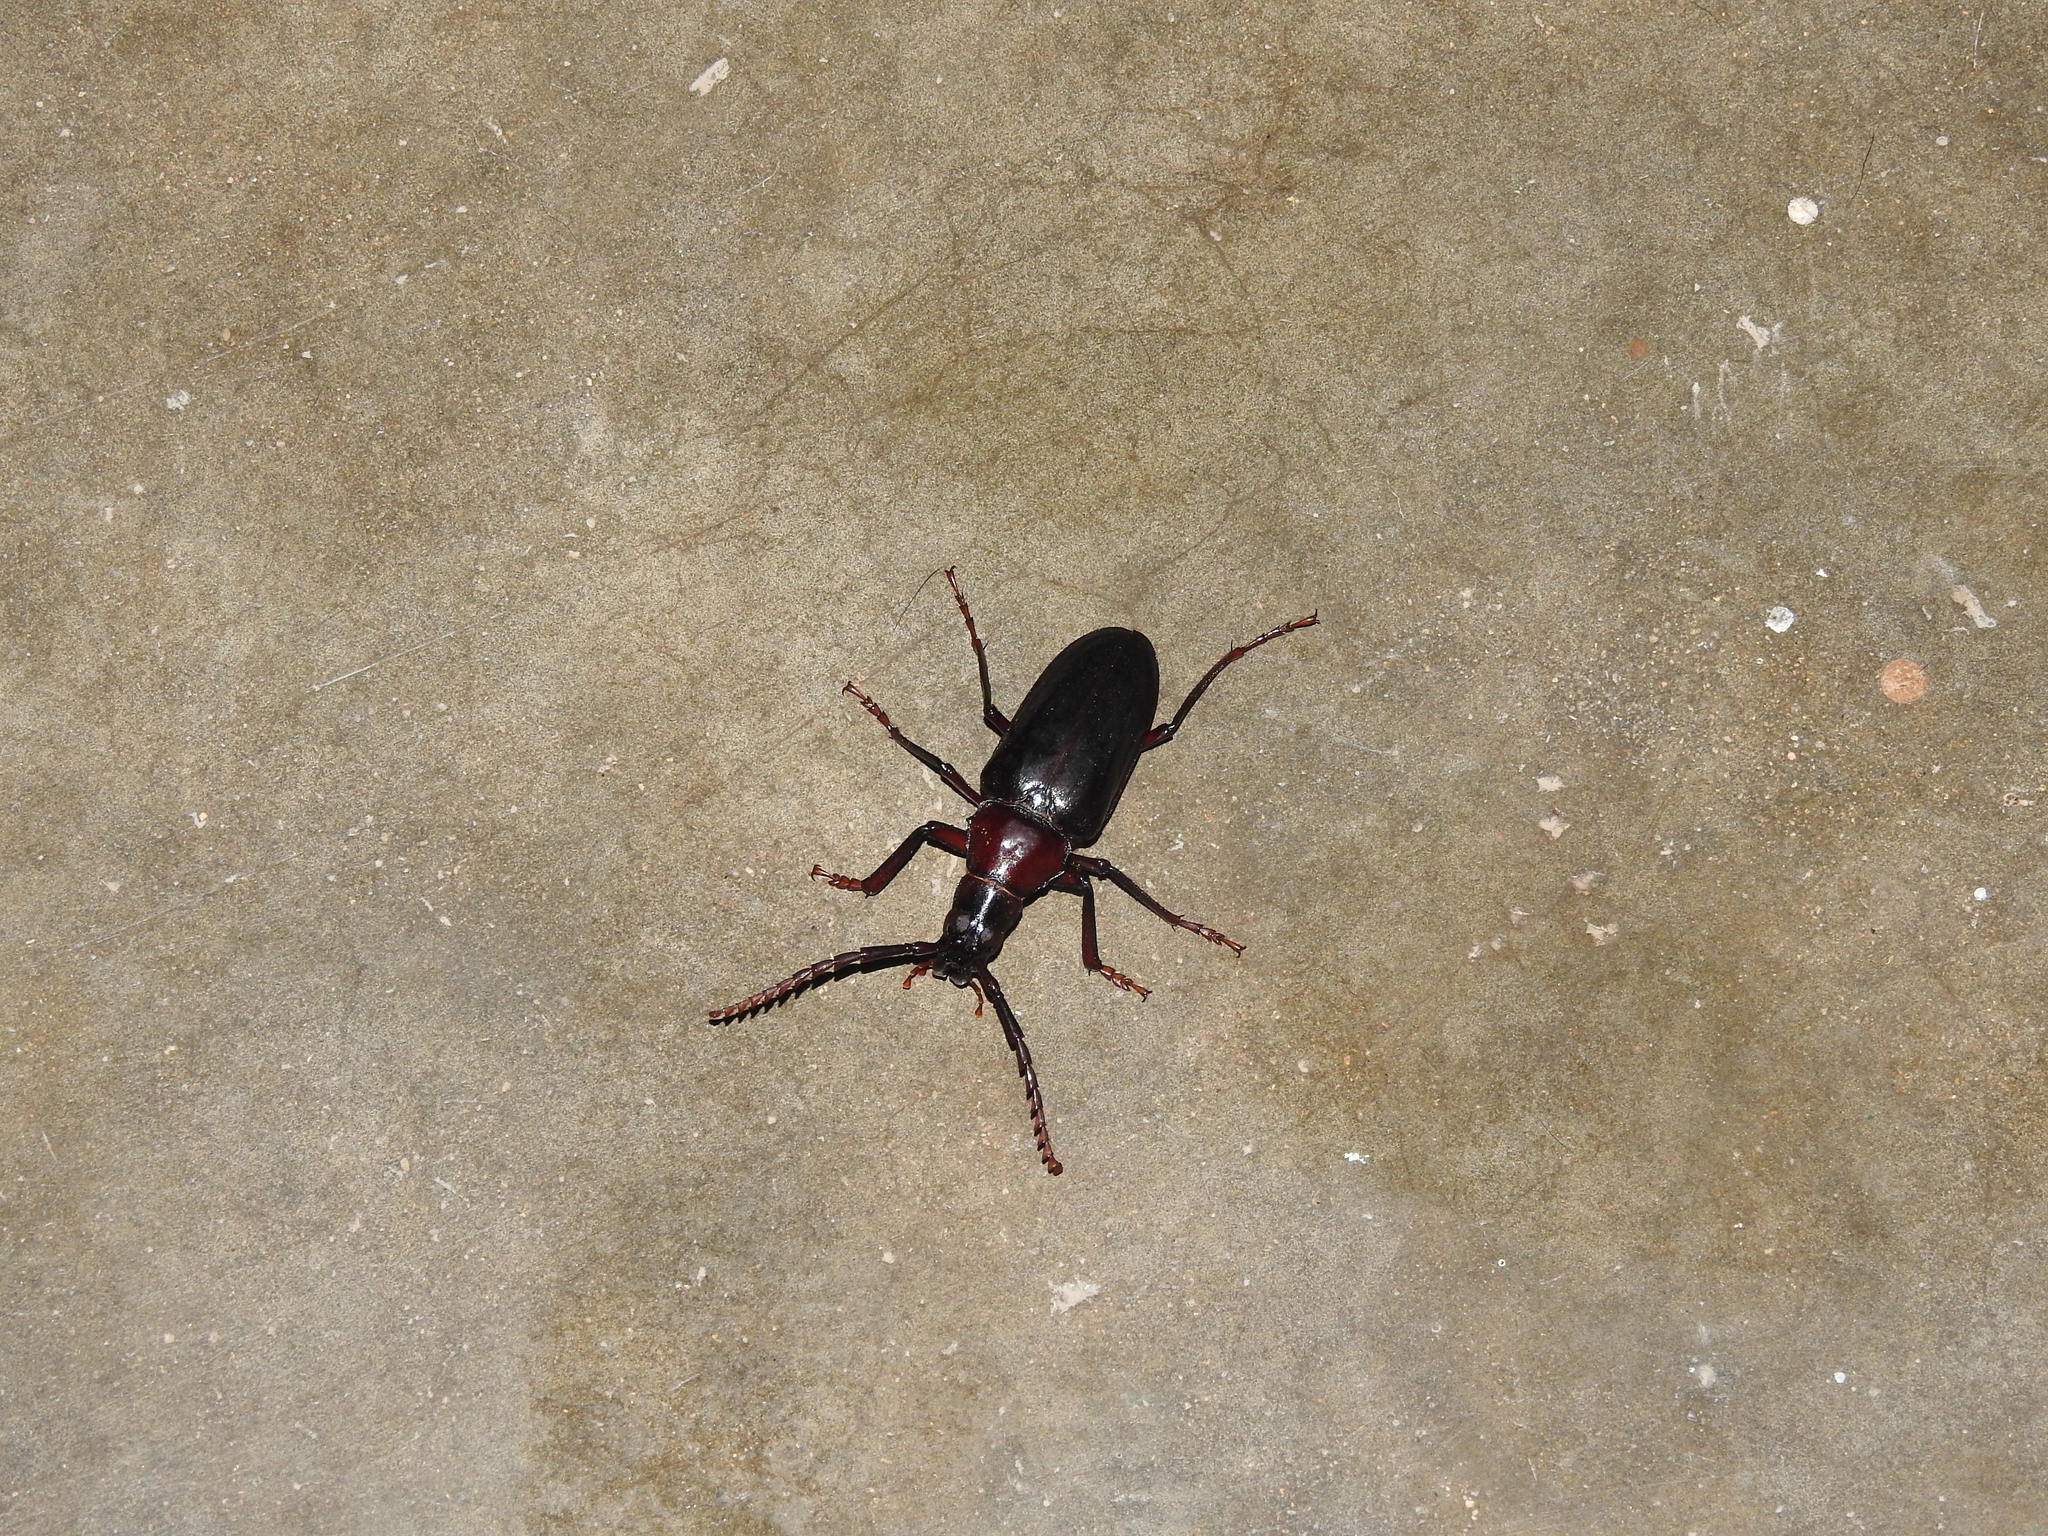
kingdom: Animalia
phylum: Arthropoda
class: Insecta
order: Coleoptera
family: Cerambycidae
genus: Dorysthenes
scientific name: Dorysthenes rostratus
